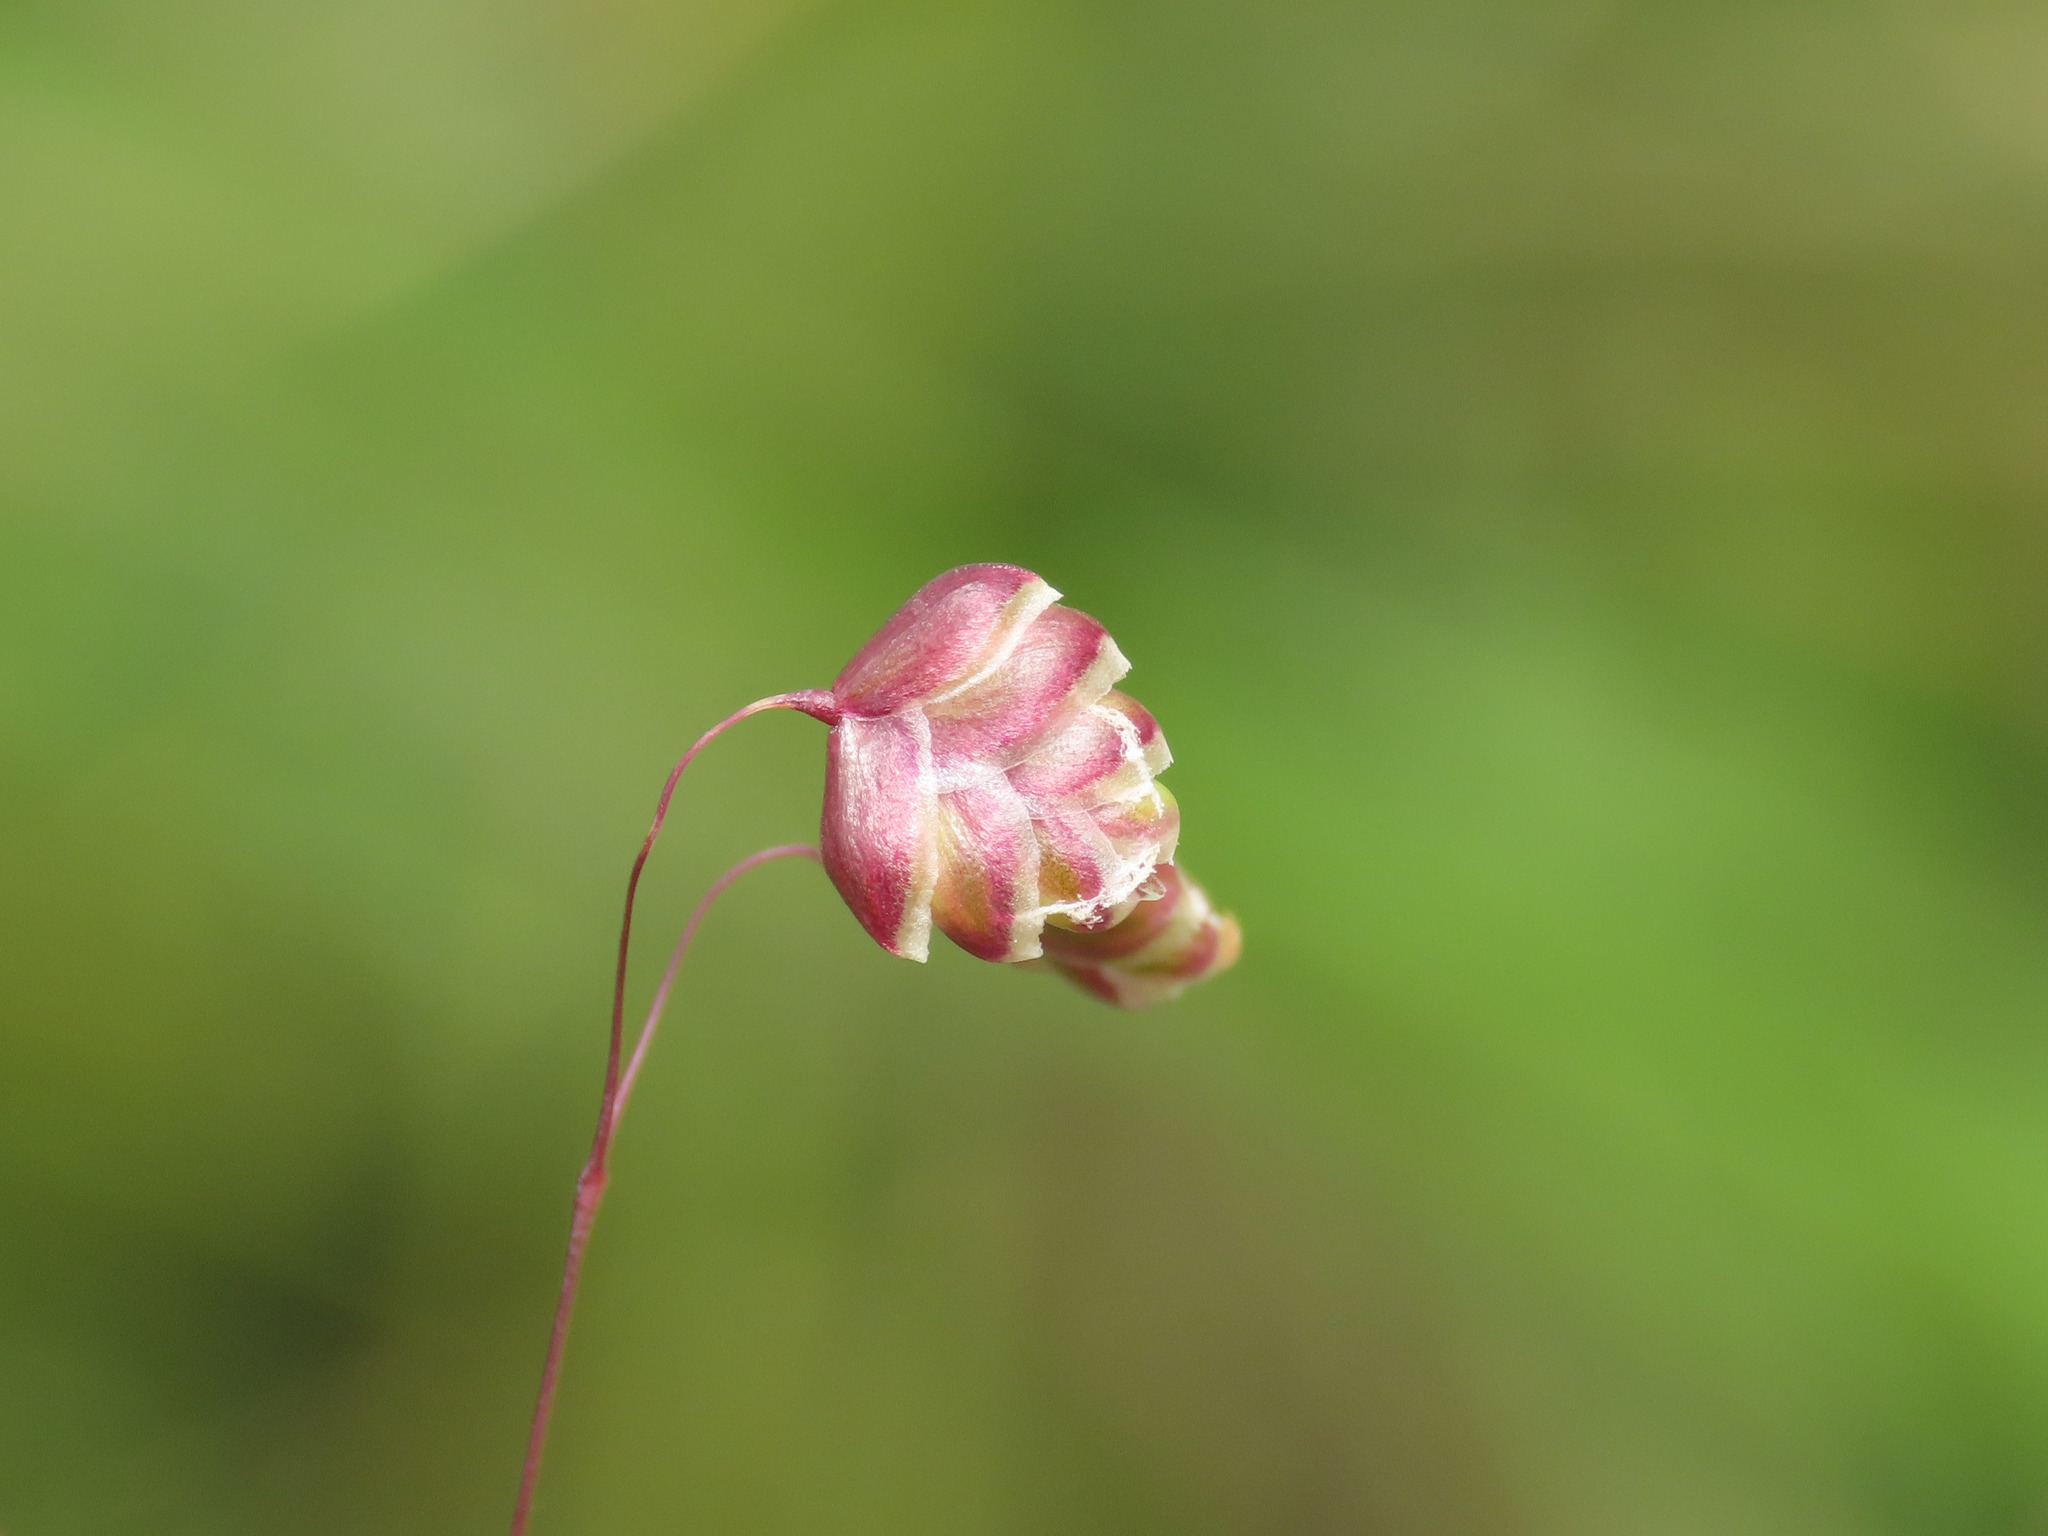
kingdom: Plantae
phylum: Tracheophyta
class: Liliopsida
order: Poales
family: Poaceae
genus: Briza
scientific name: Briza media
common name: Quaking grass
